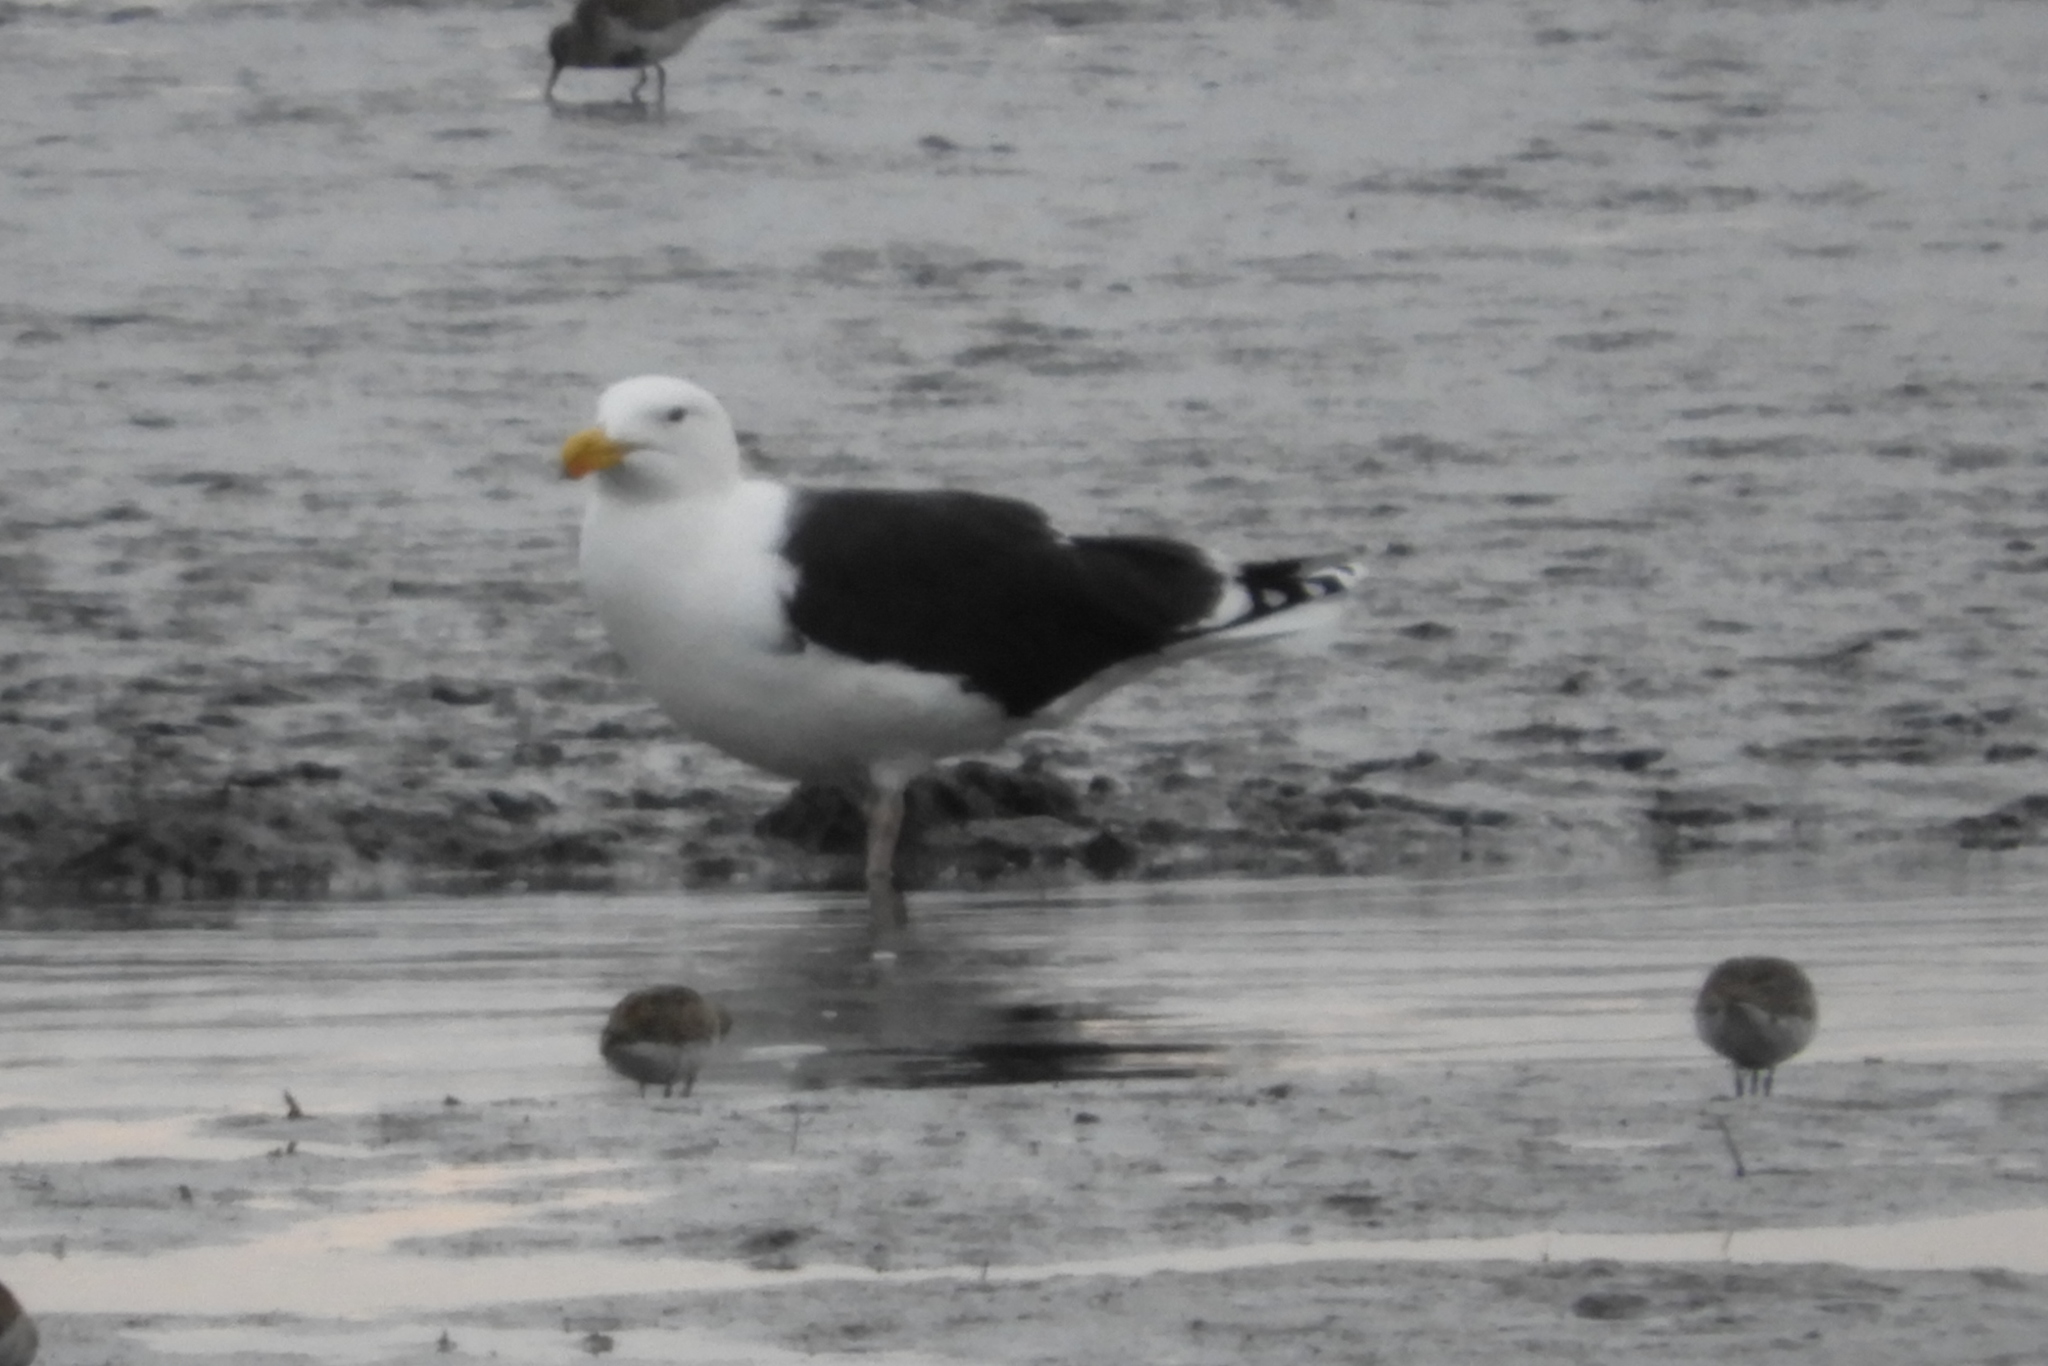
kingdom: Animalia
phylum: Chordata
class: Aves
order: Charadriiformes
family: Laridae
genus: Larus
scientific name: Larus marinus
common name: Great black-backed gull
